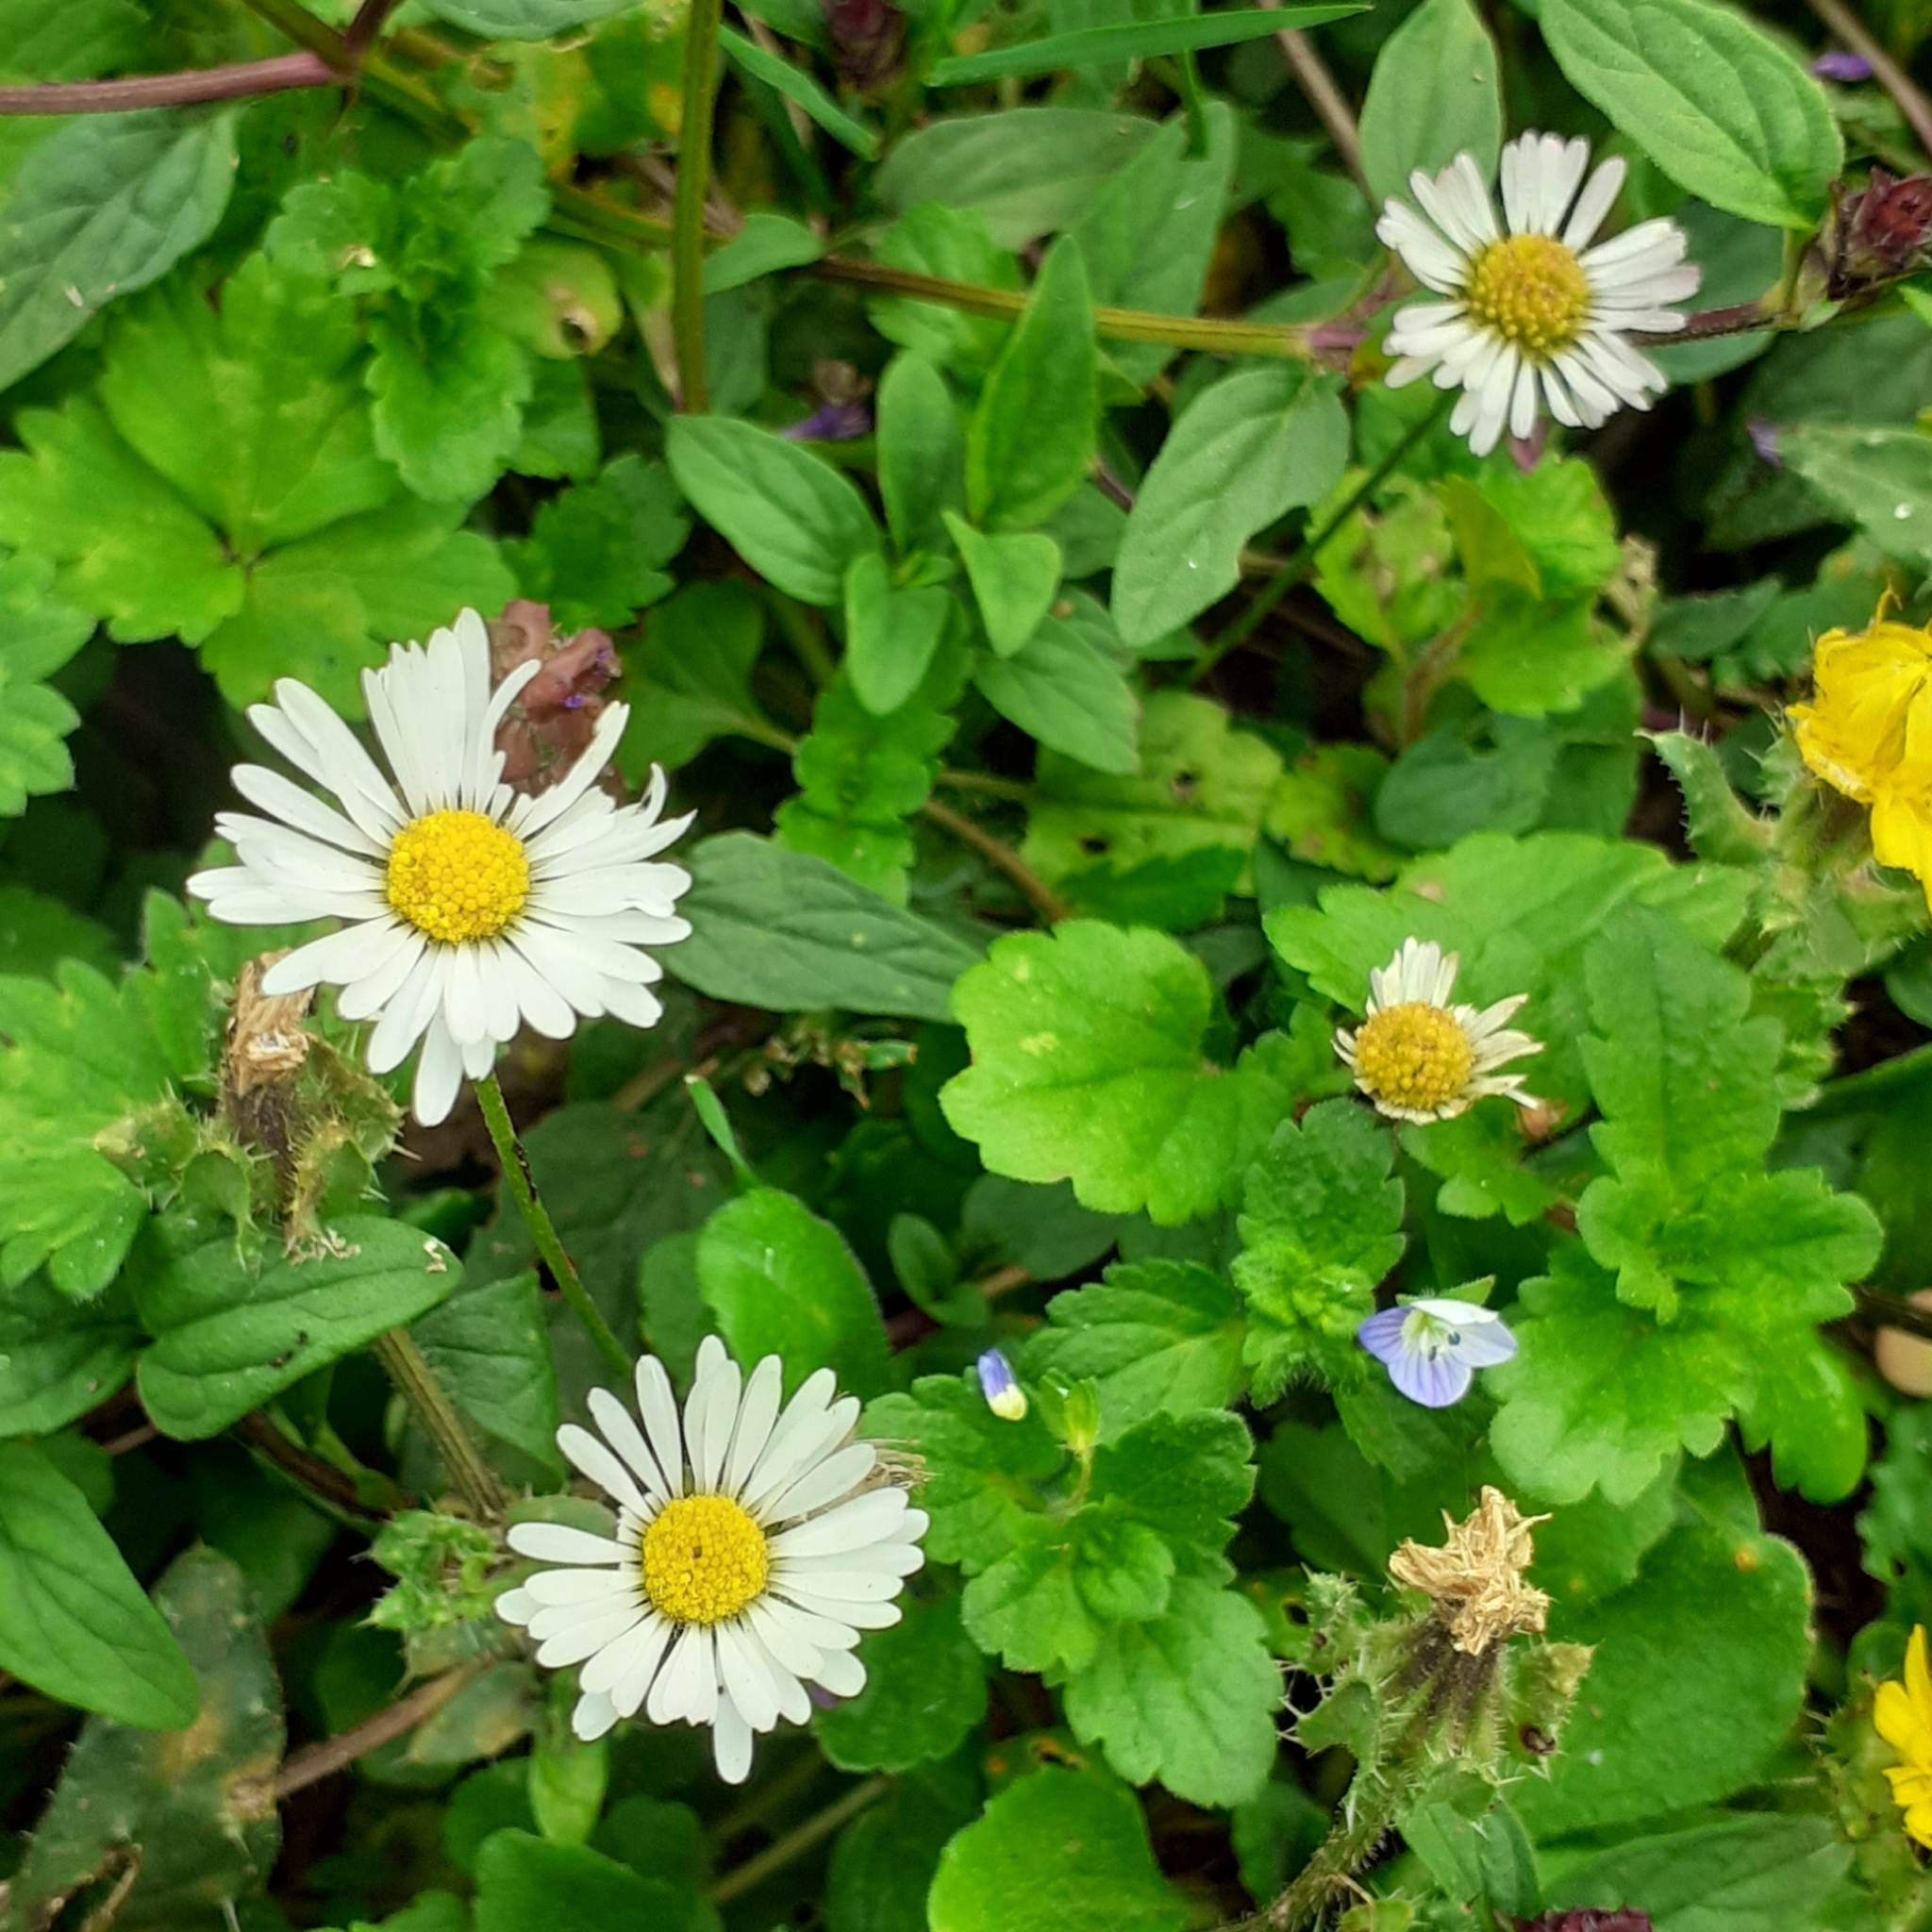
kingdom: Plantae
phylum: Tracheophyta
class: Magnoliopsida
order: Asterales
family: Asteraceae
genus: Bellis
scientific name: Bellis perennis
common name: Lawndaisy
